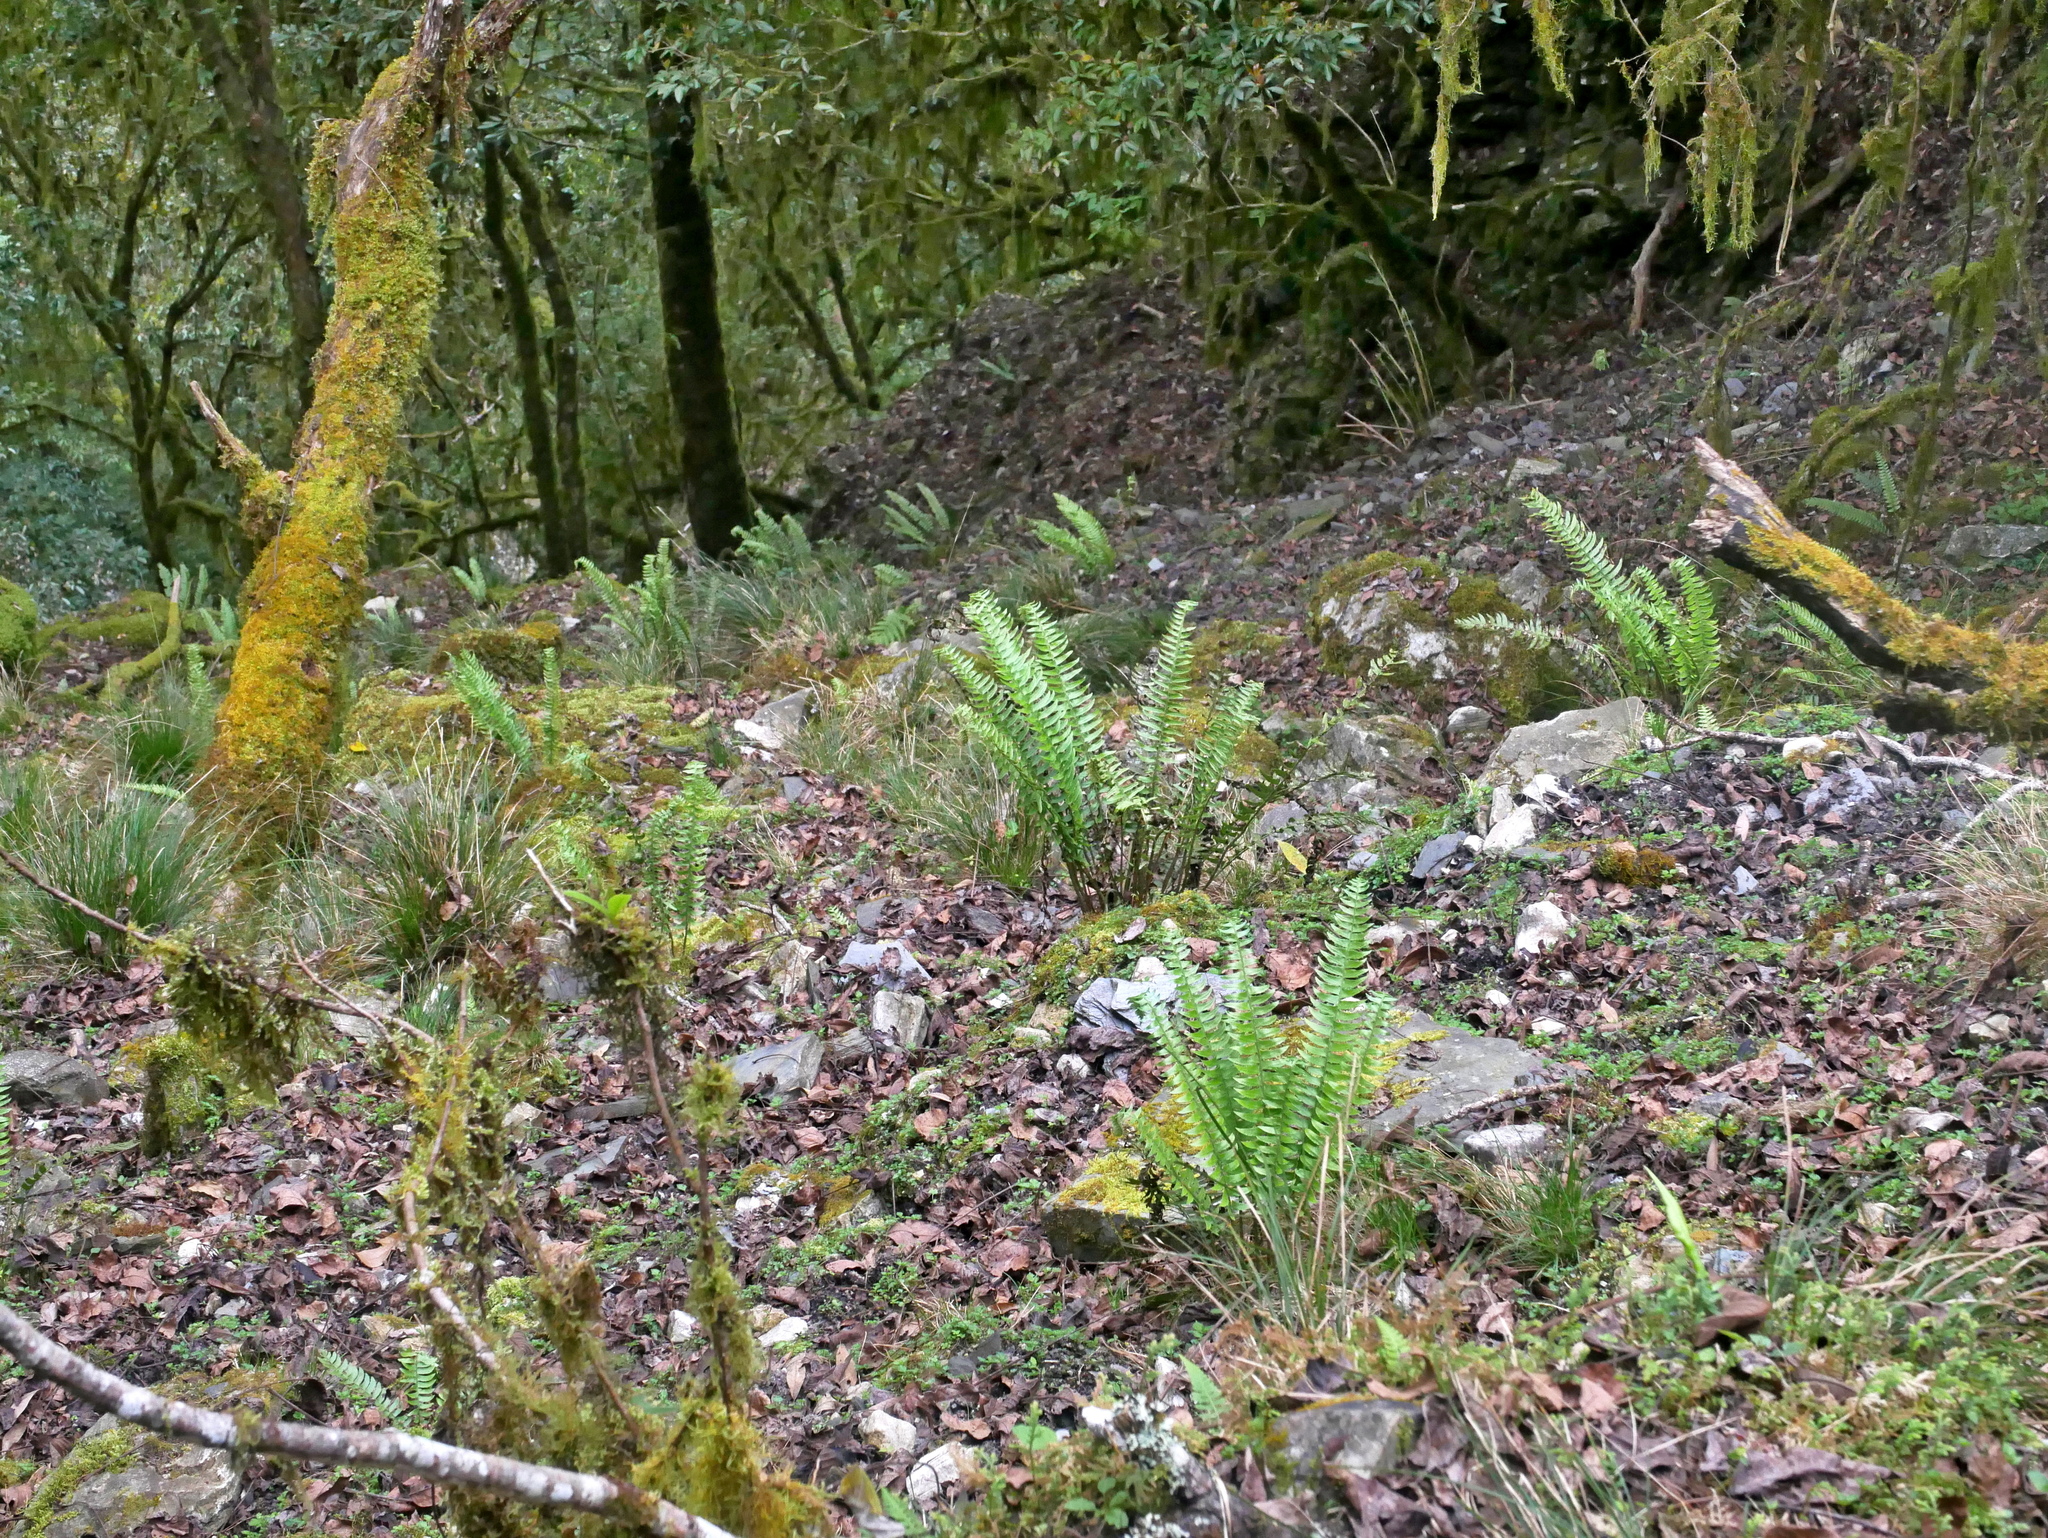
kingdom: Plantae
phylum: Tracheophyta
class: Polypodiopsida
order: Polypodiales
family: Dryopteridaceae
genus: Polystichum
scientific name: Polystichum acutidens
